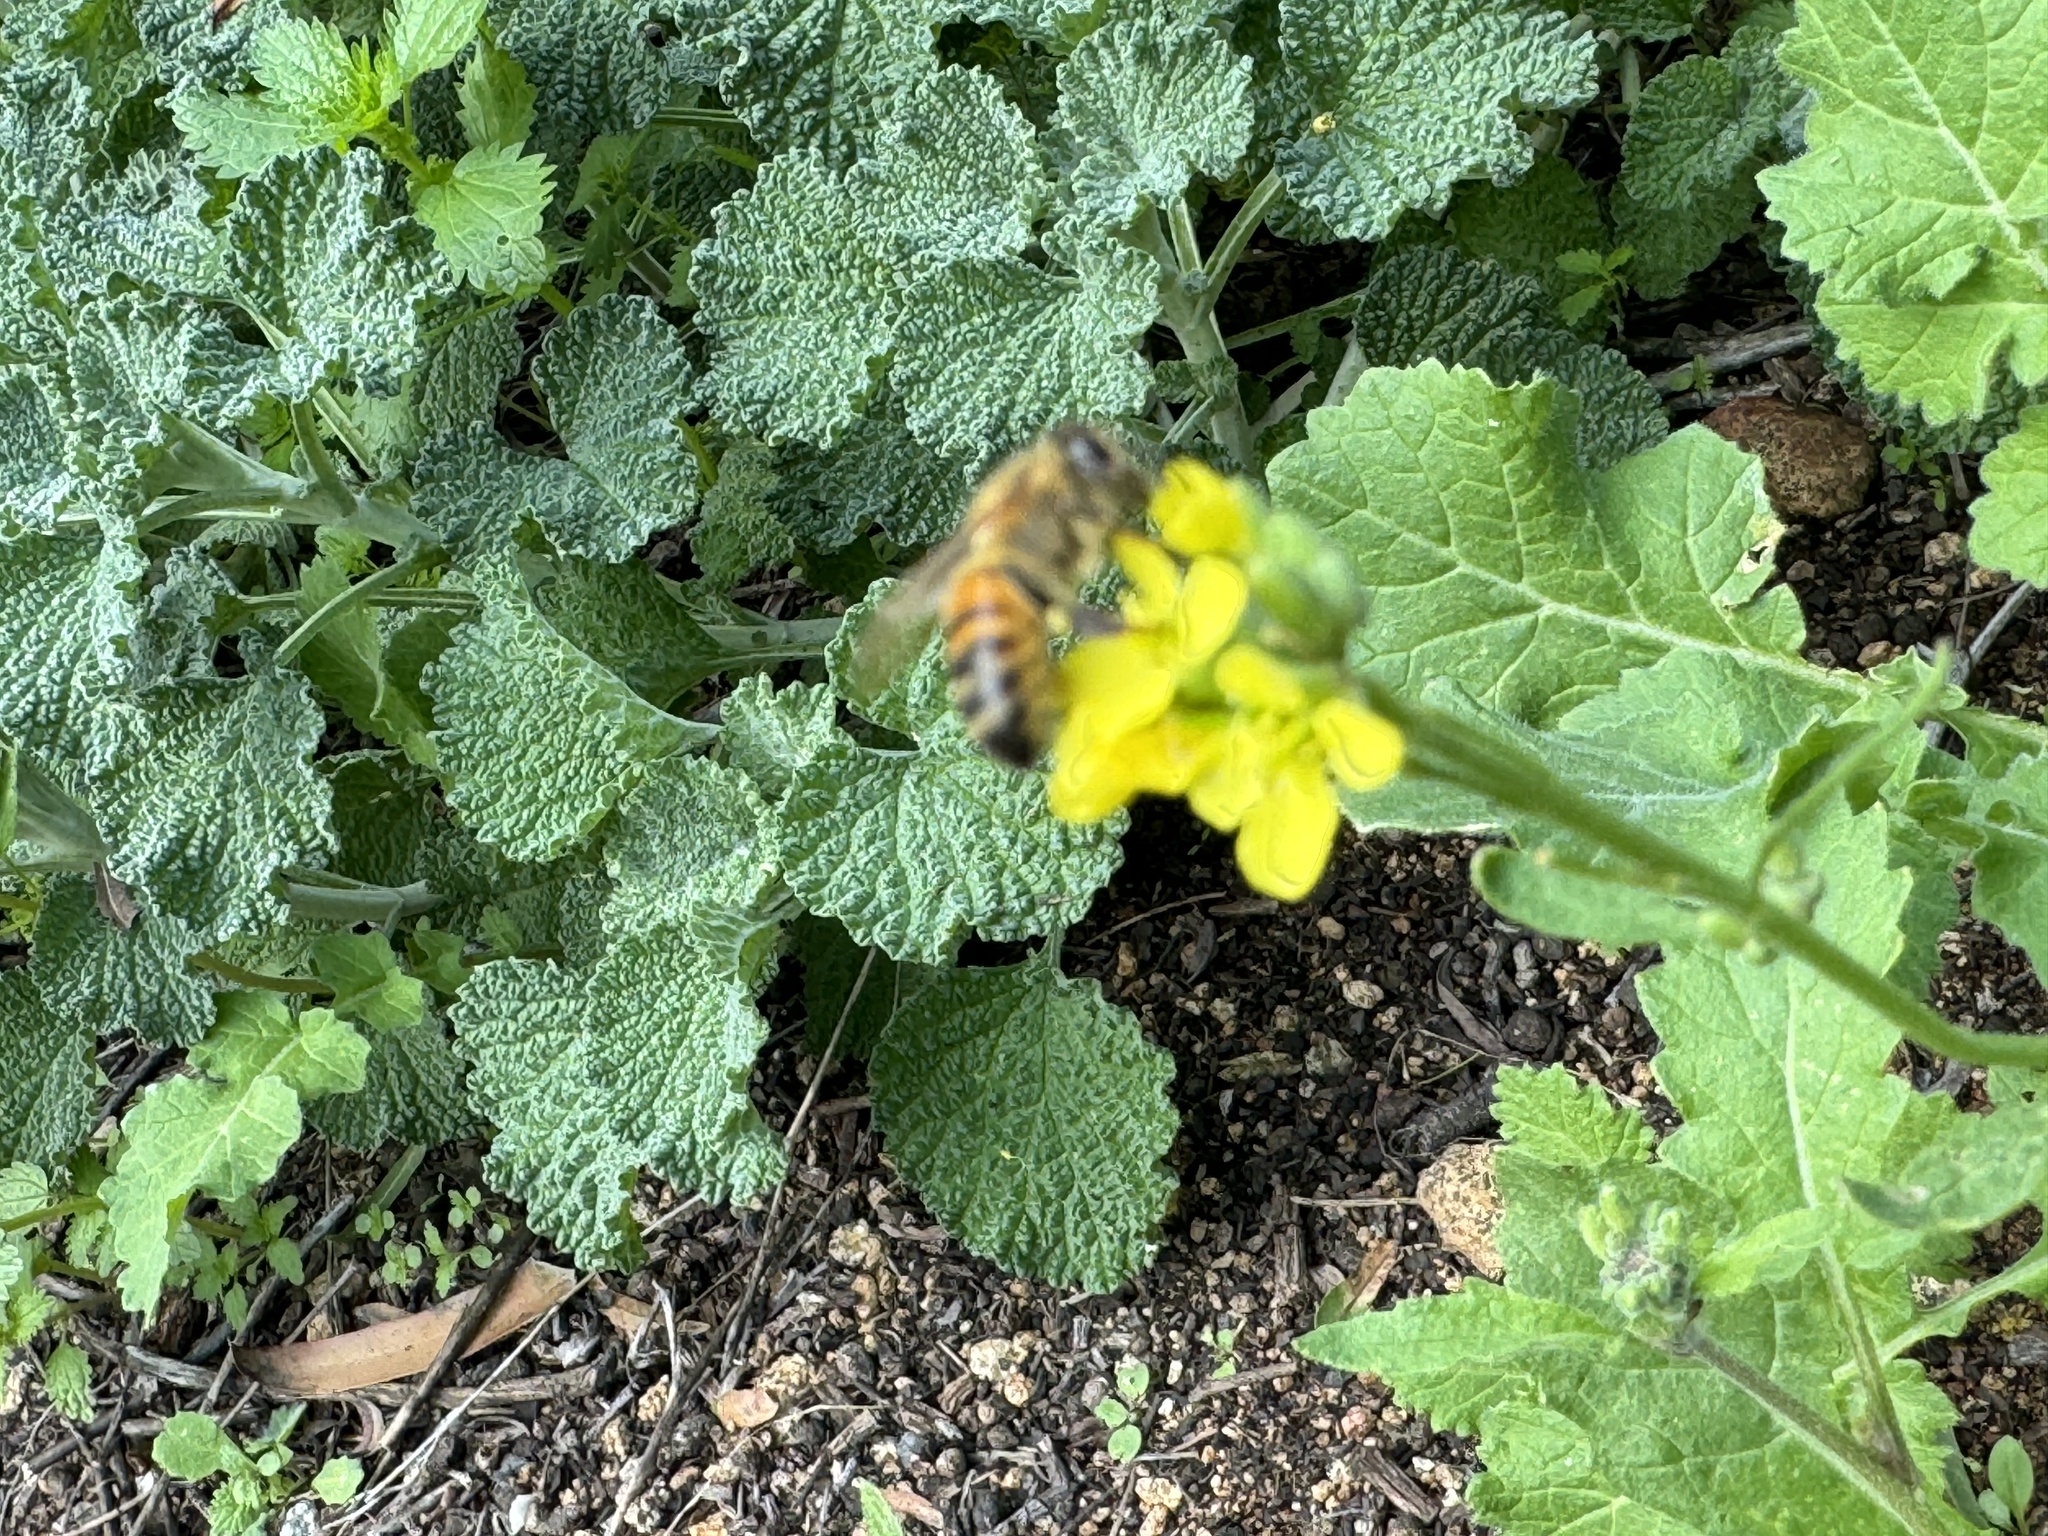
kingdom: Animalia
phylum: Arthropoda
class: Insecta
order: Hymenoptera
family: Apidae
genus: Apis
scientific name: Apis mellifera
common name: Honey bee
